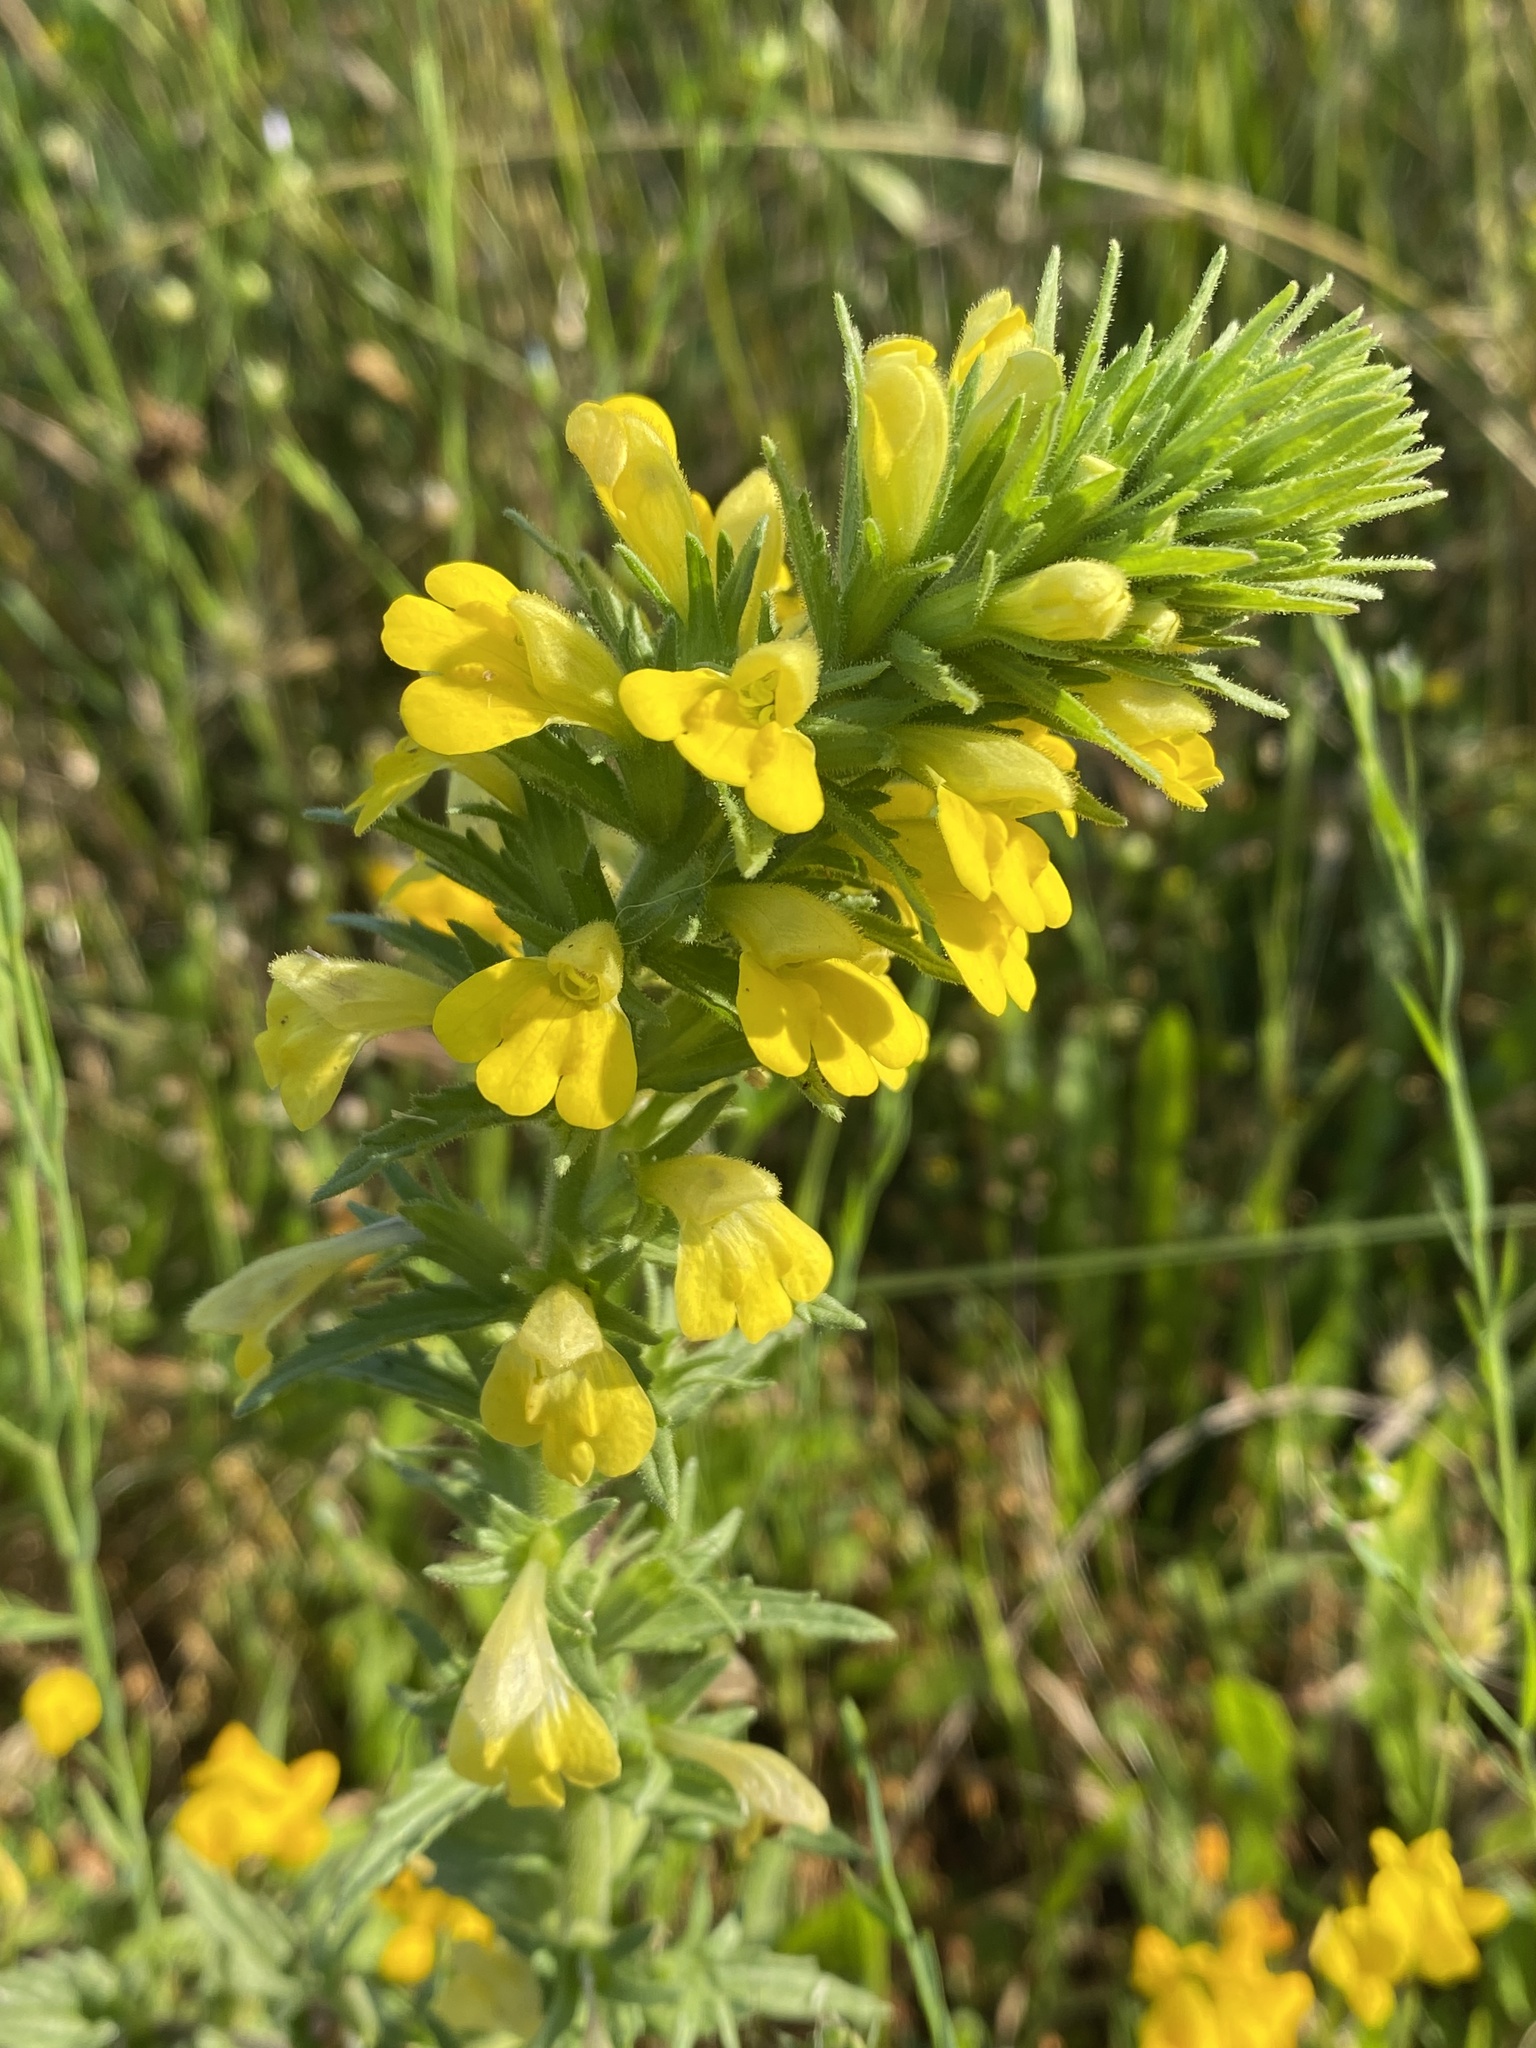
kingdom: Plantae
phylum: Tracheophyta
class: Magnoliopsida
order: Lamiales
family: Orobanchaceae
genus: Bellardia
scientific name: Bellardia viscosa
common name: Sticky parentucellia
